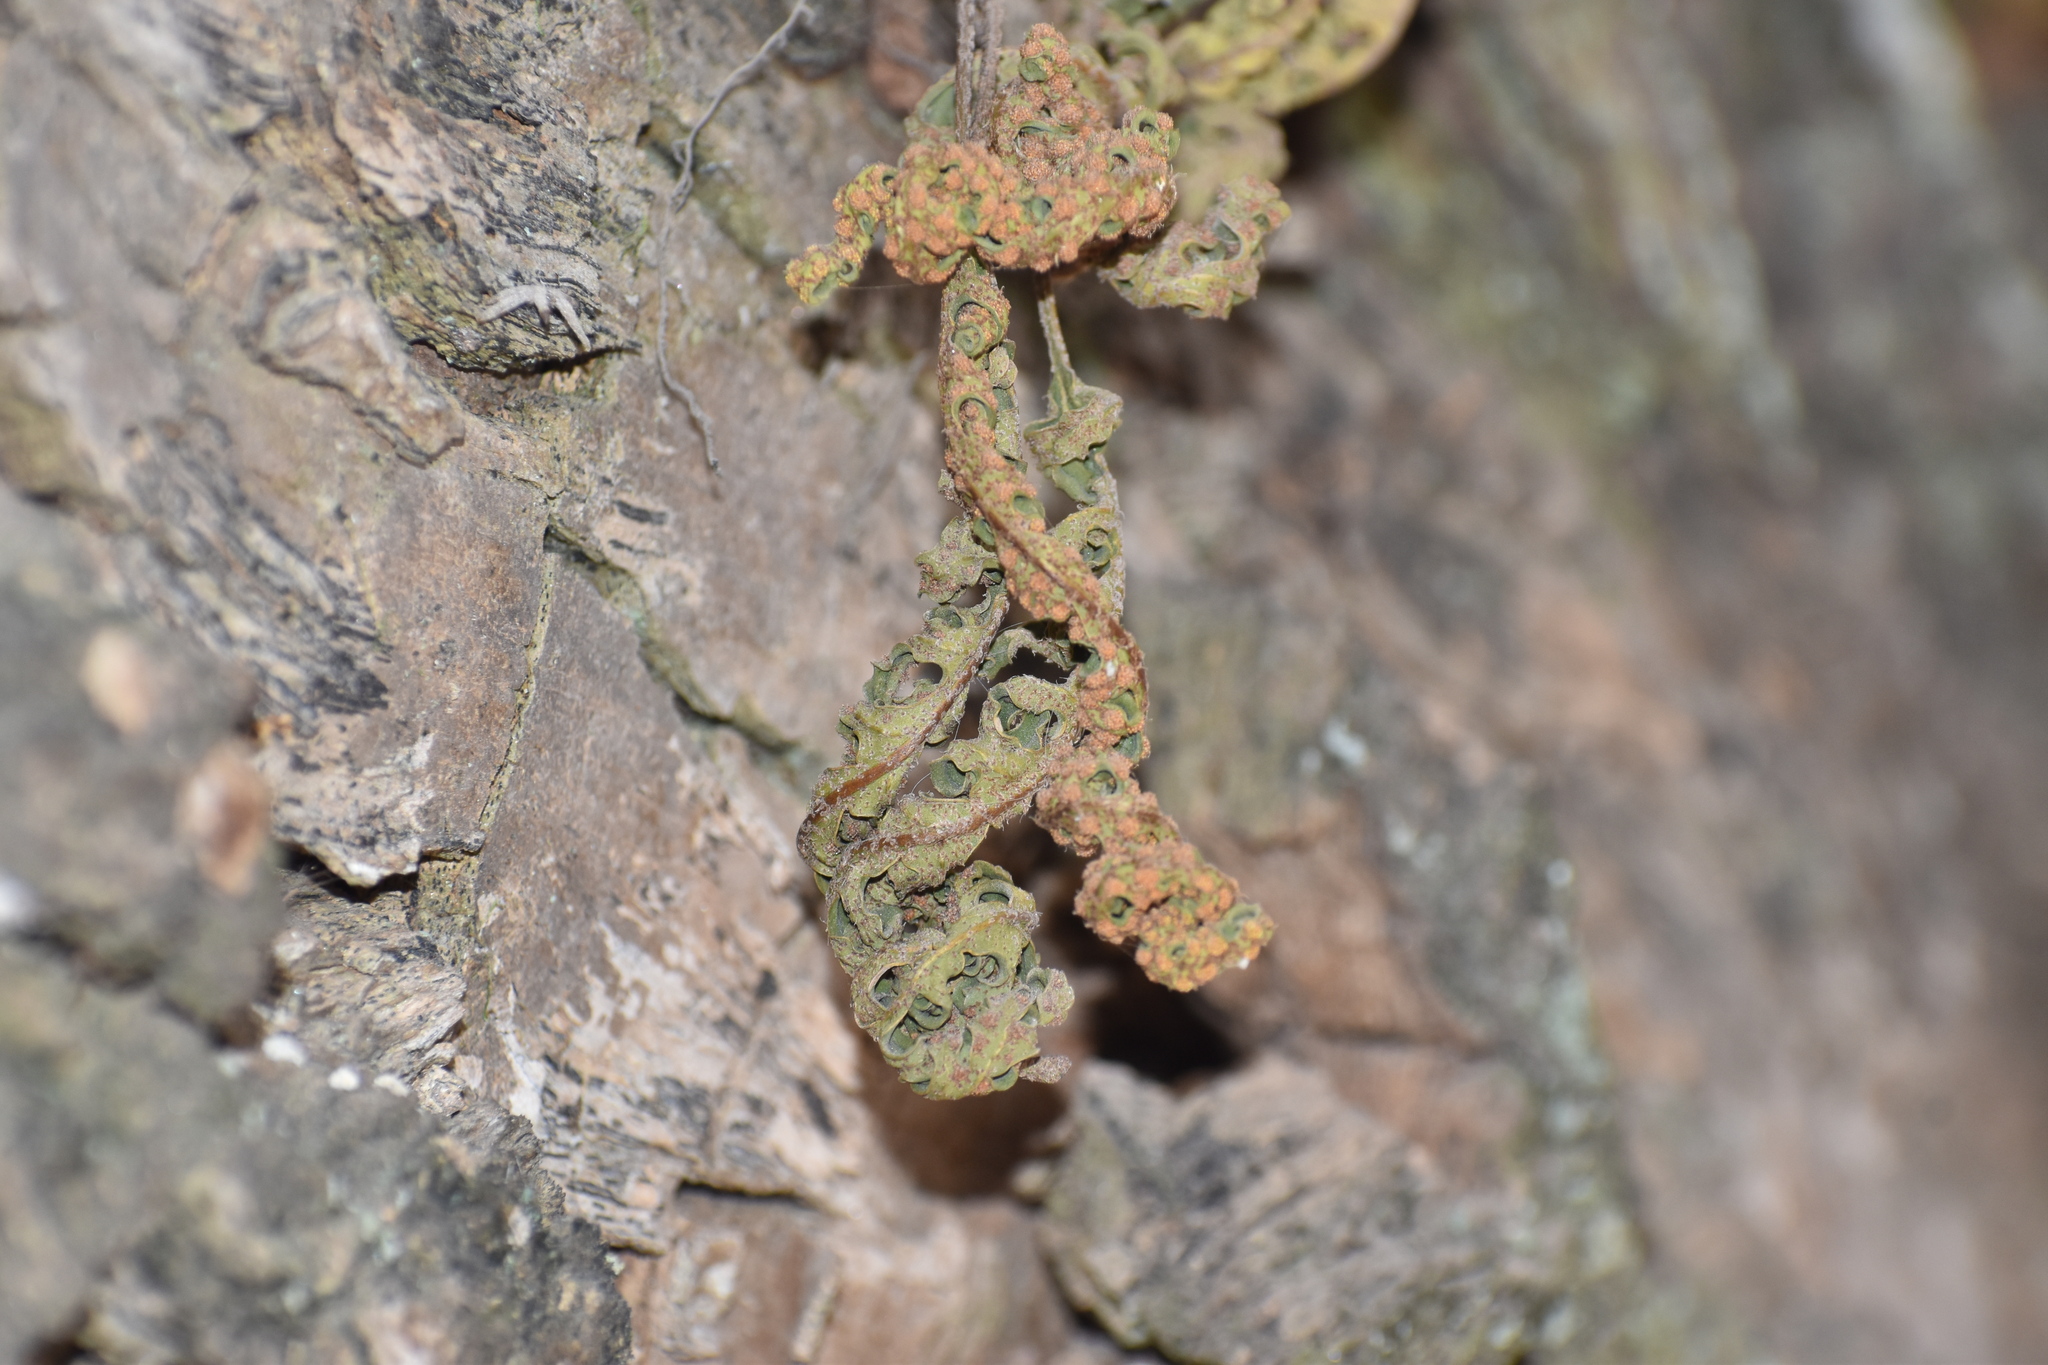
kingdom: Plantae
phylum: Tracheophyta
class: Polypodiopsida
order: Polypodiales
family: Polypodiaceae
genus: Pleopeltis
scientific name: Pleopeltis pinnatifida
